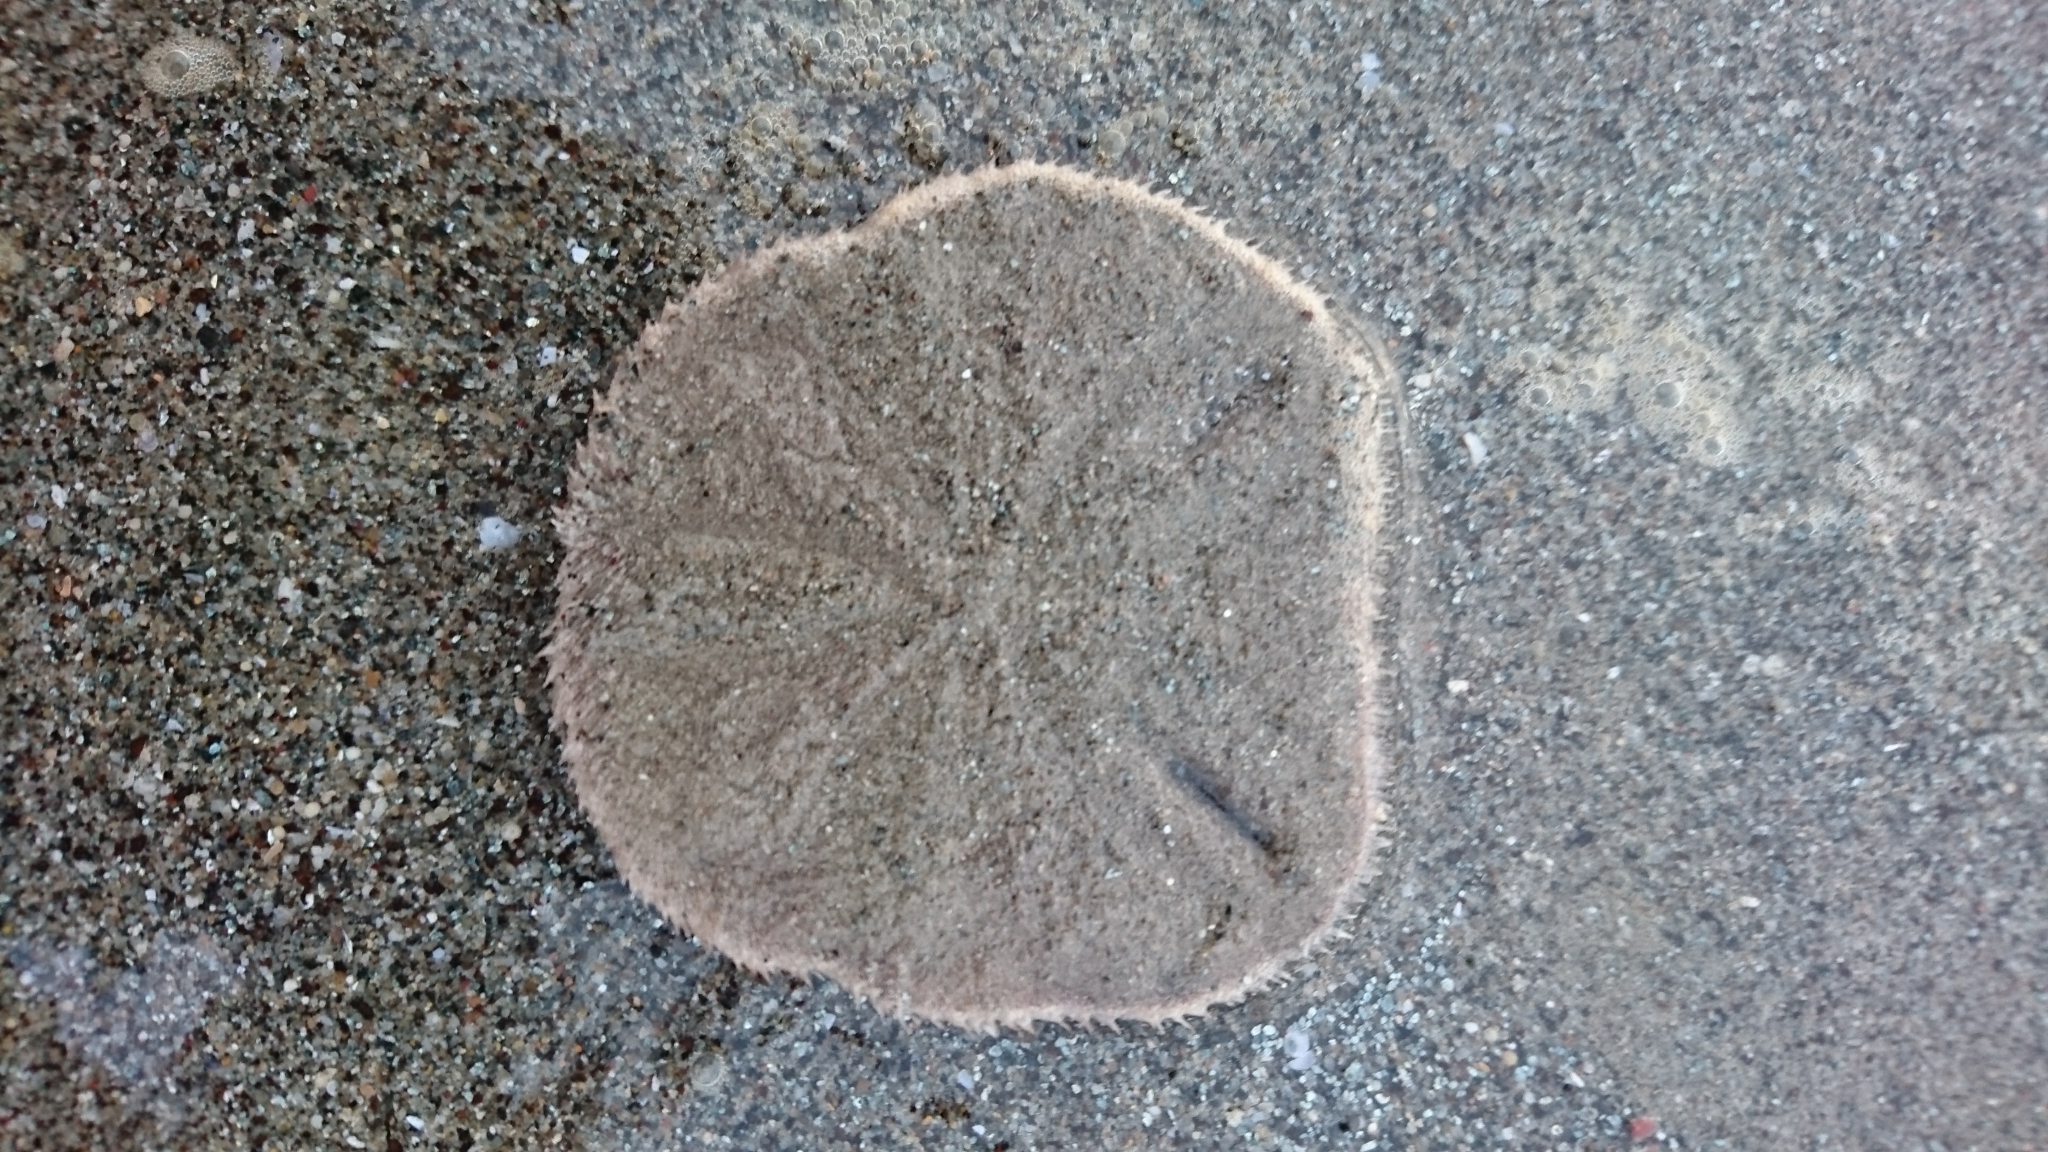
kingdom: Animalia
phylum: Echinodermata
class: Echinoidea
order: Echinolampadacea
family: Astriclypeidae
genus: Echinodiscus
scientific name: Echinodiscus
